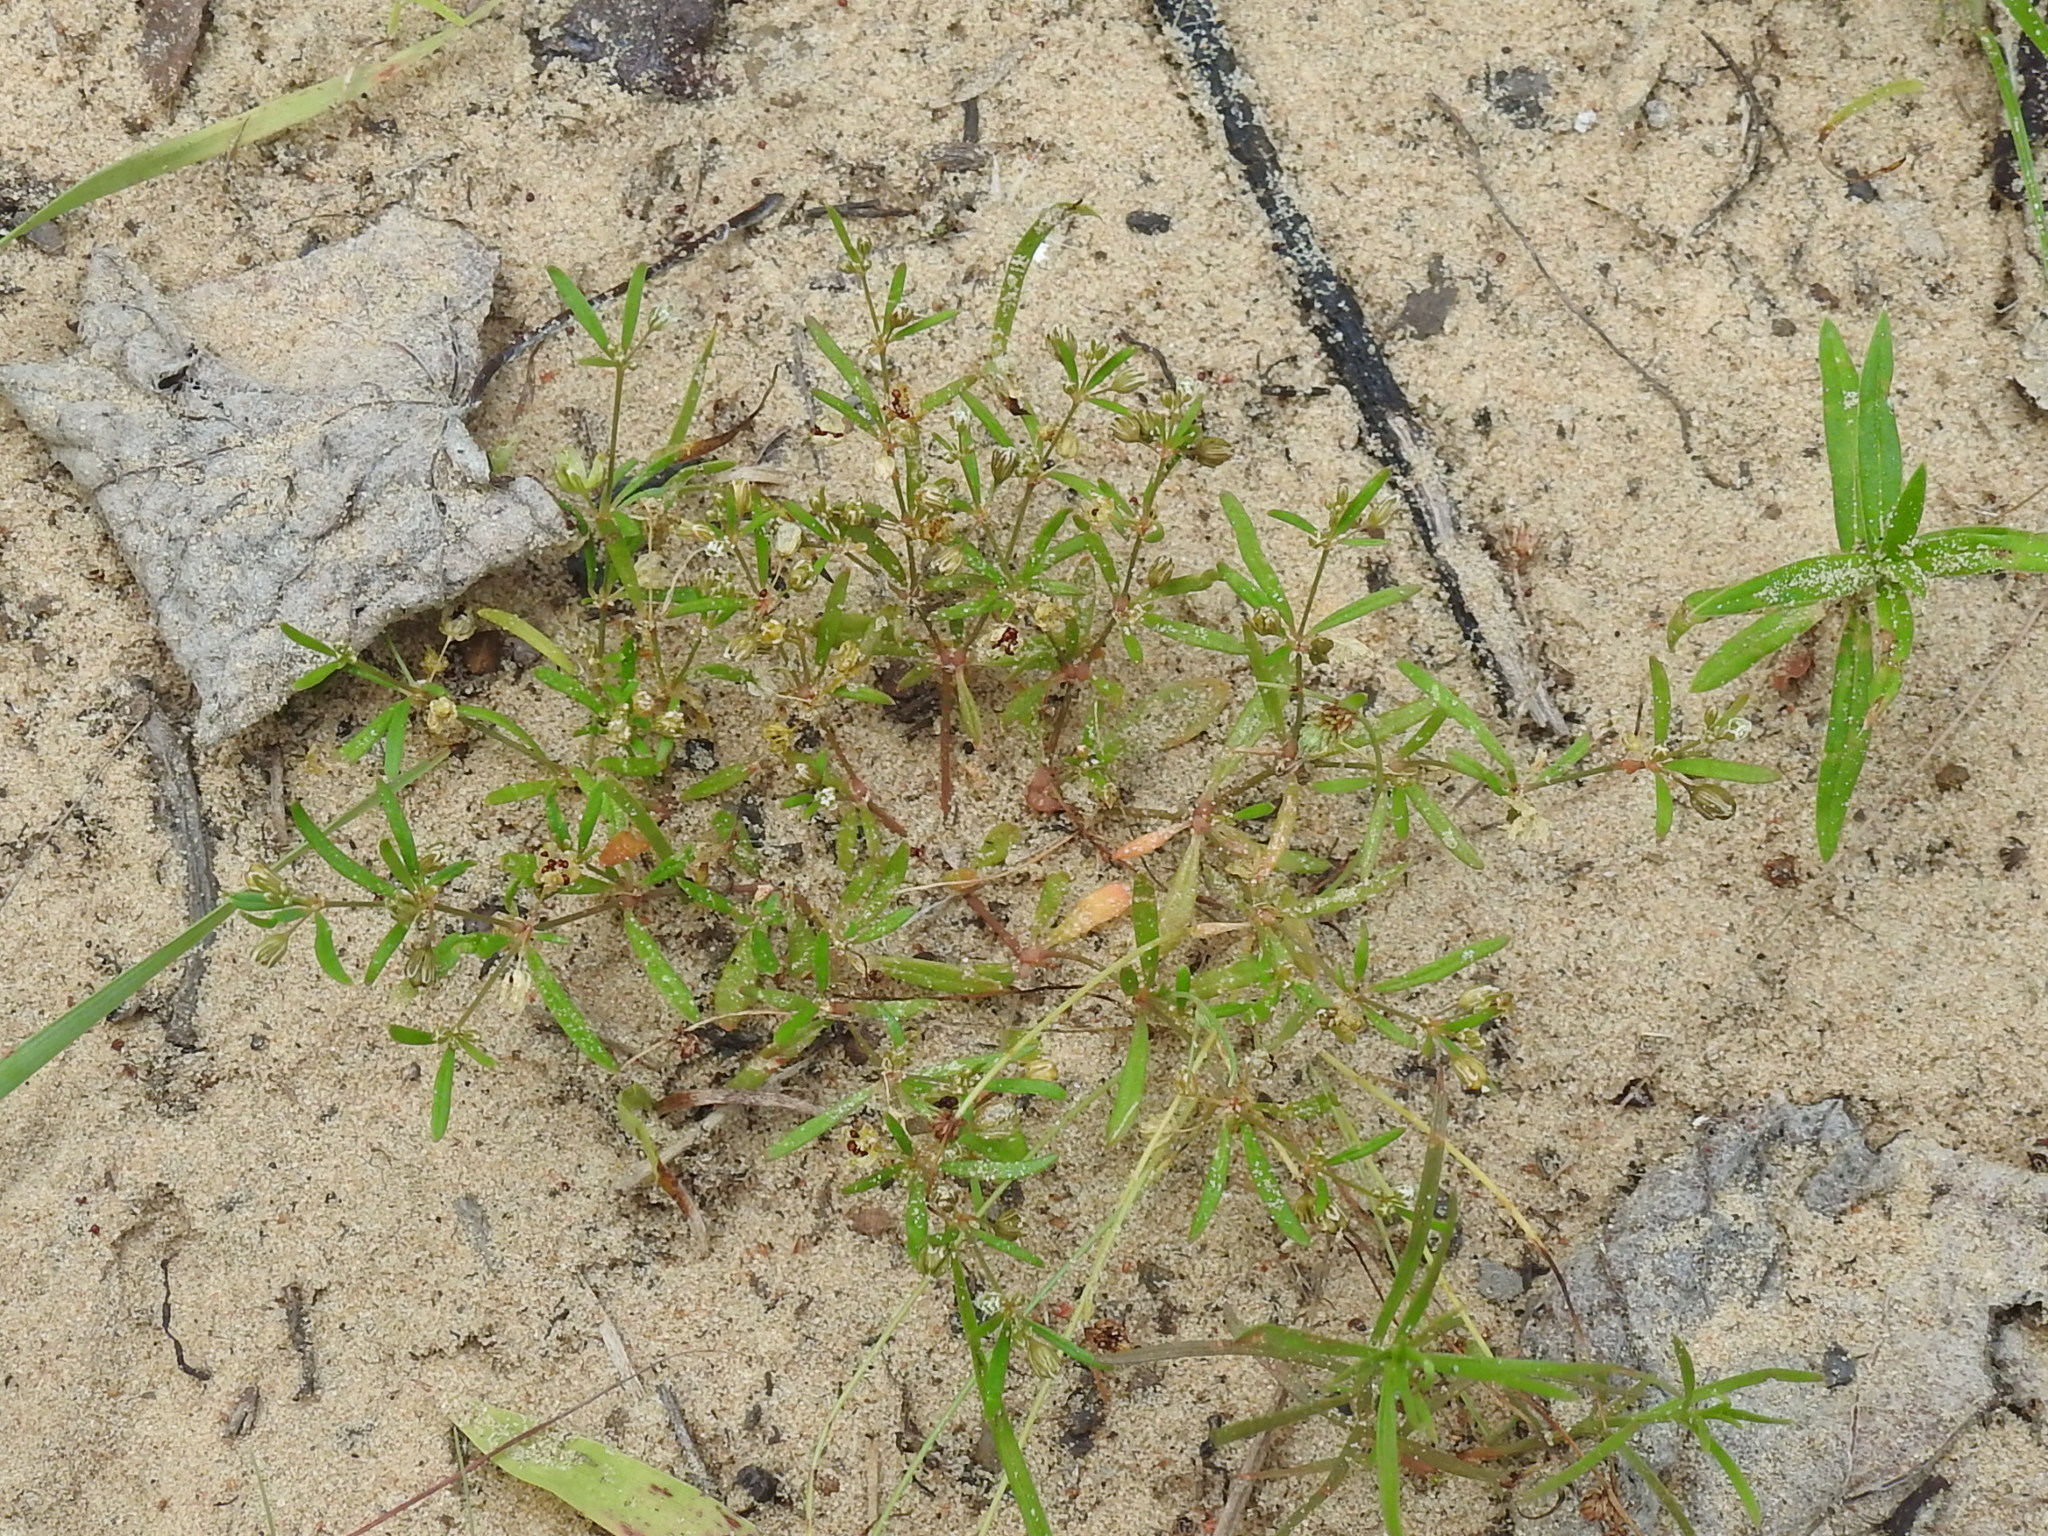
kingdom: Plantae
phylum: Tracheophyta
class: Magnoliopsida
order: Caryophyllales
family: Molluginaceae
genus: Mollugo
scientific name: Mollugo verticillata
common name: Green carpetweed
